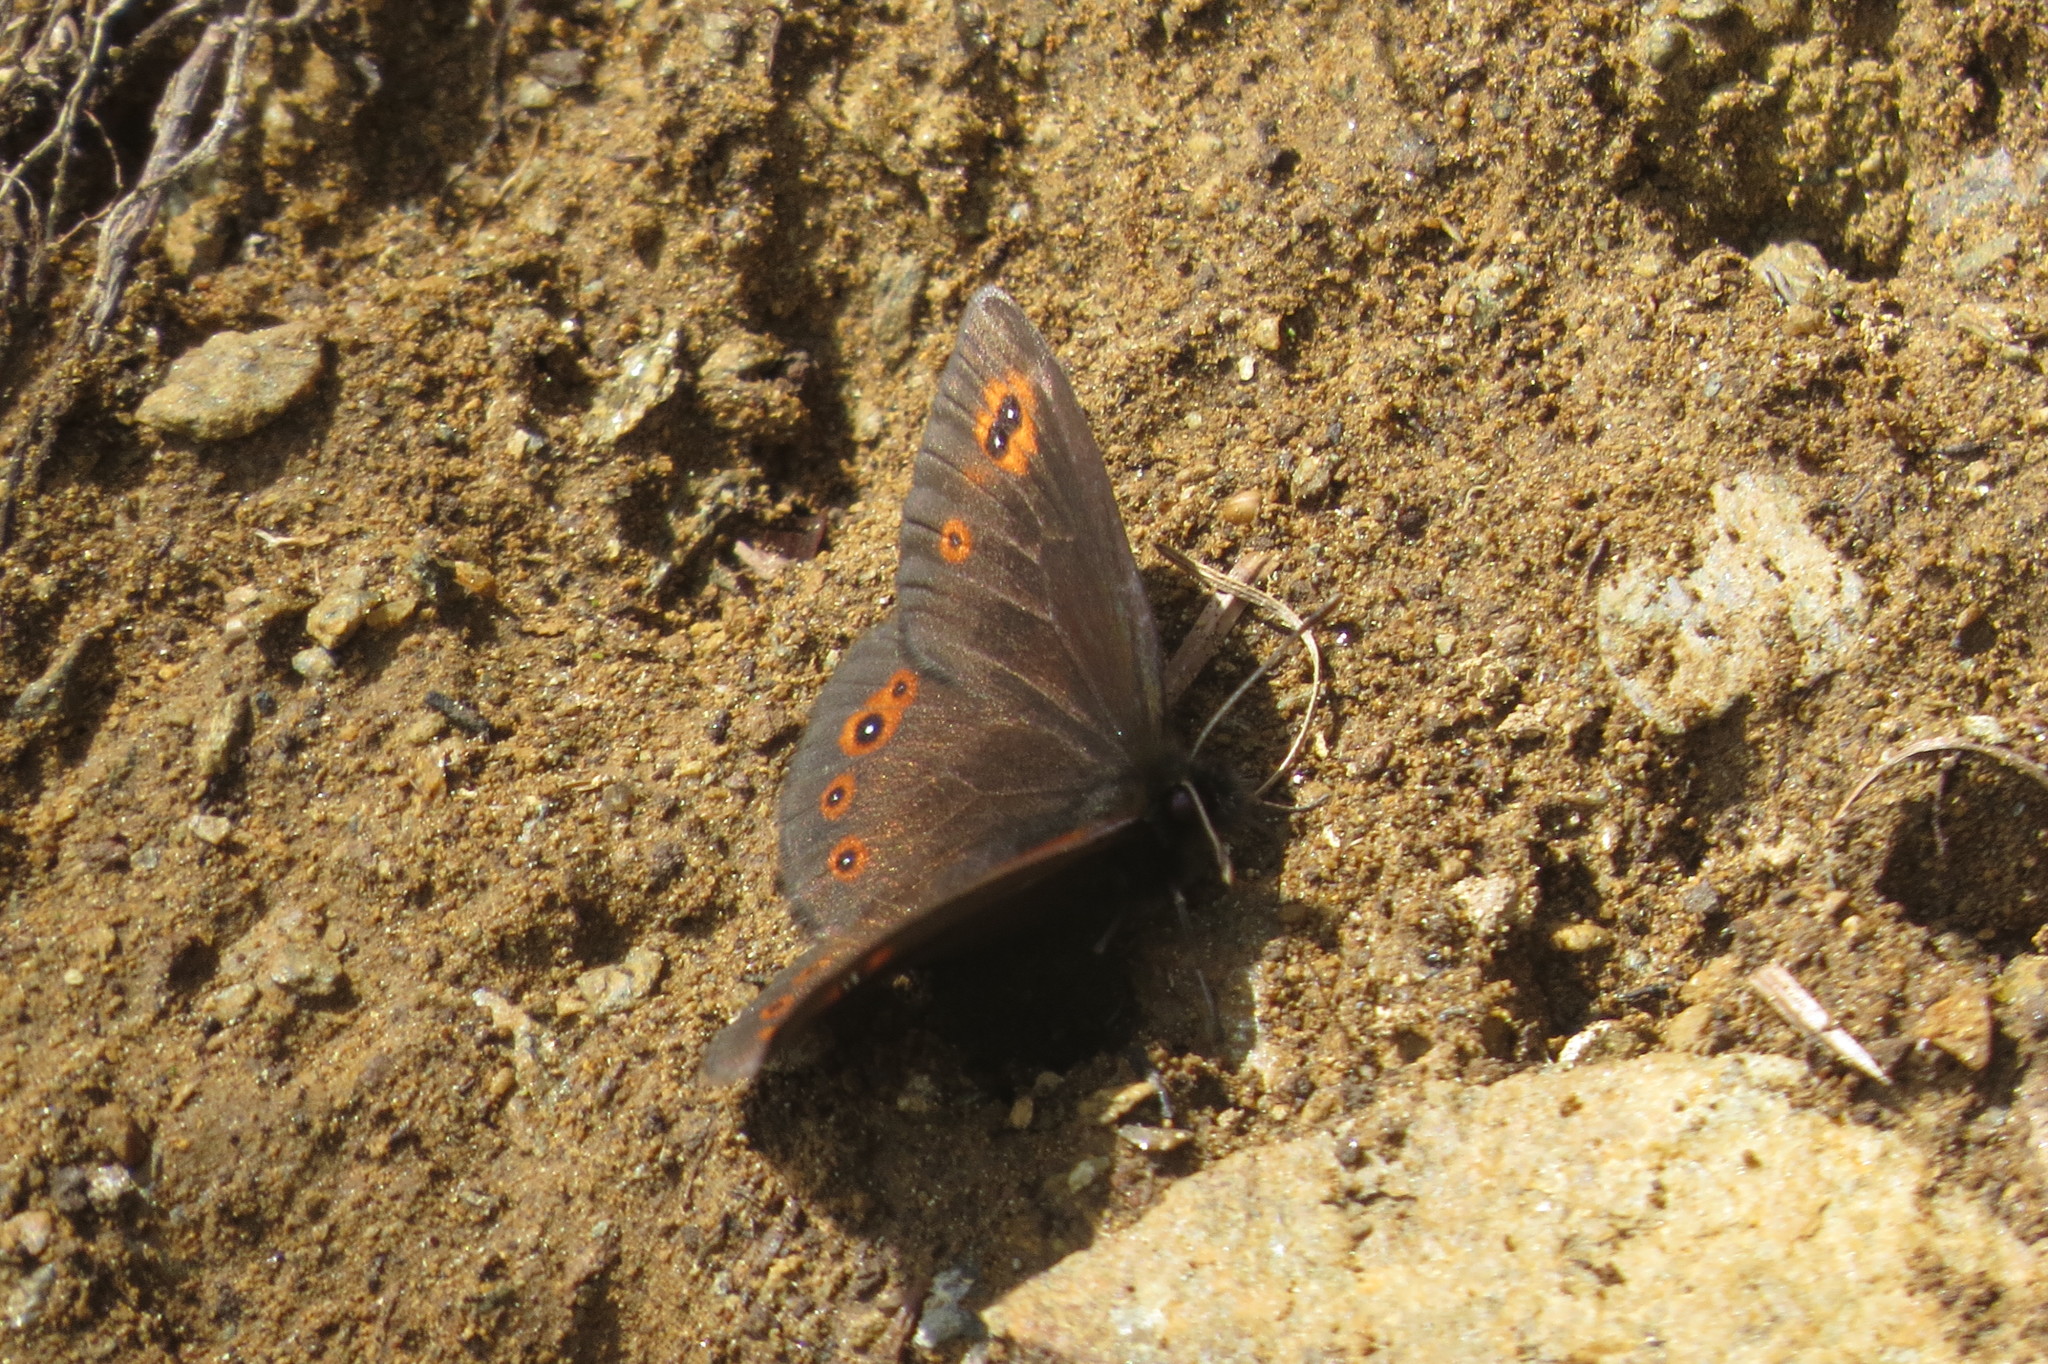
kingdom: Animalia
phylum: Arthropoda
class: Insecta
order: Lepidoptera
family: Nymphalidae
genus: Erebia
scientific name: Erebia medusa
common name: Woodland ringlet
